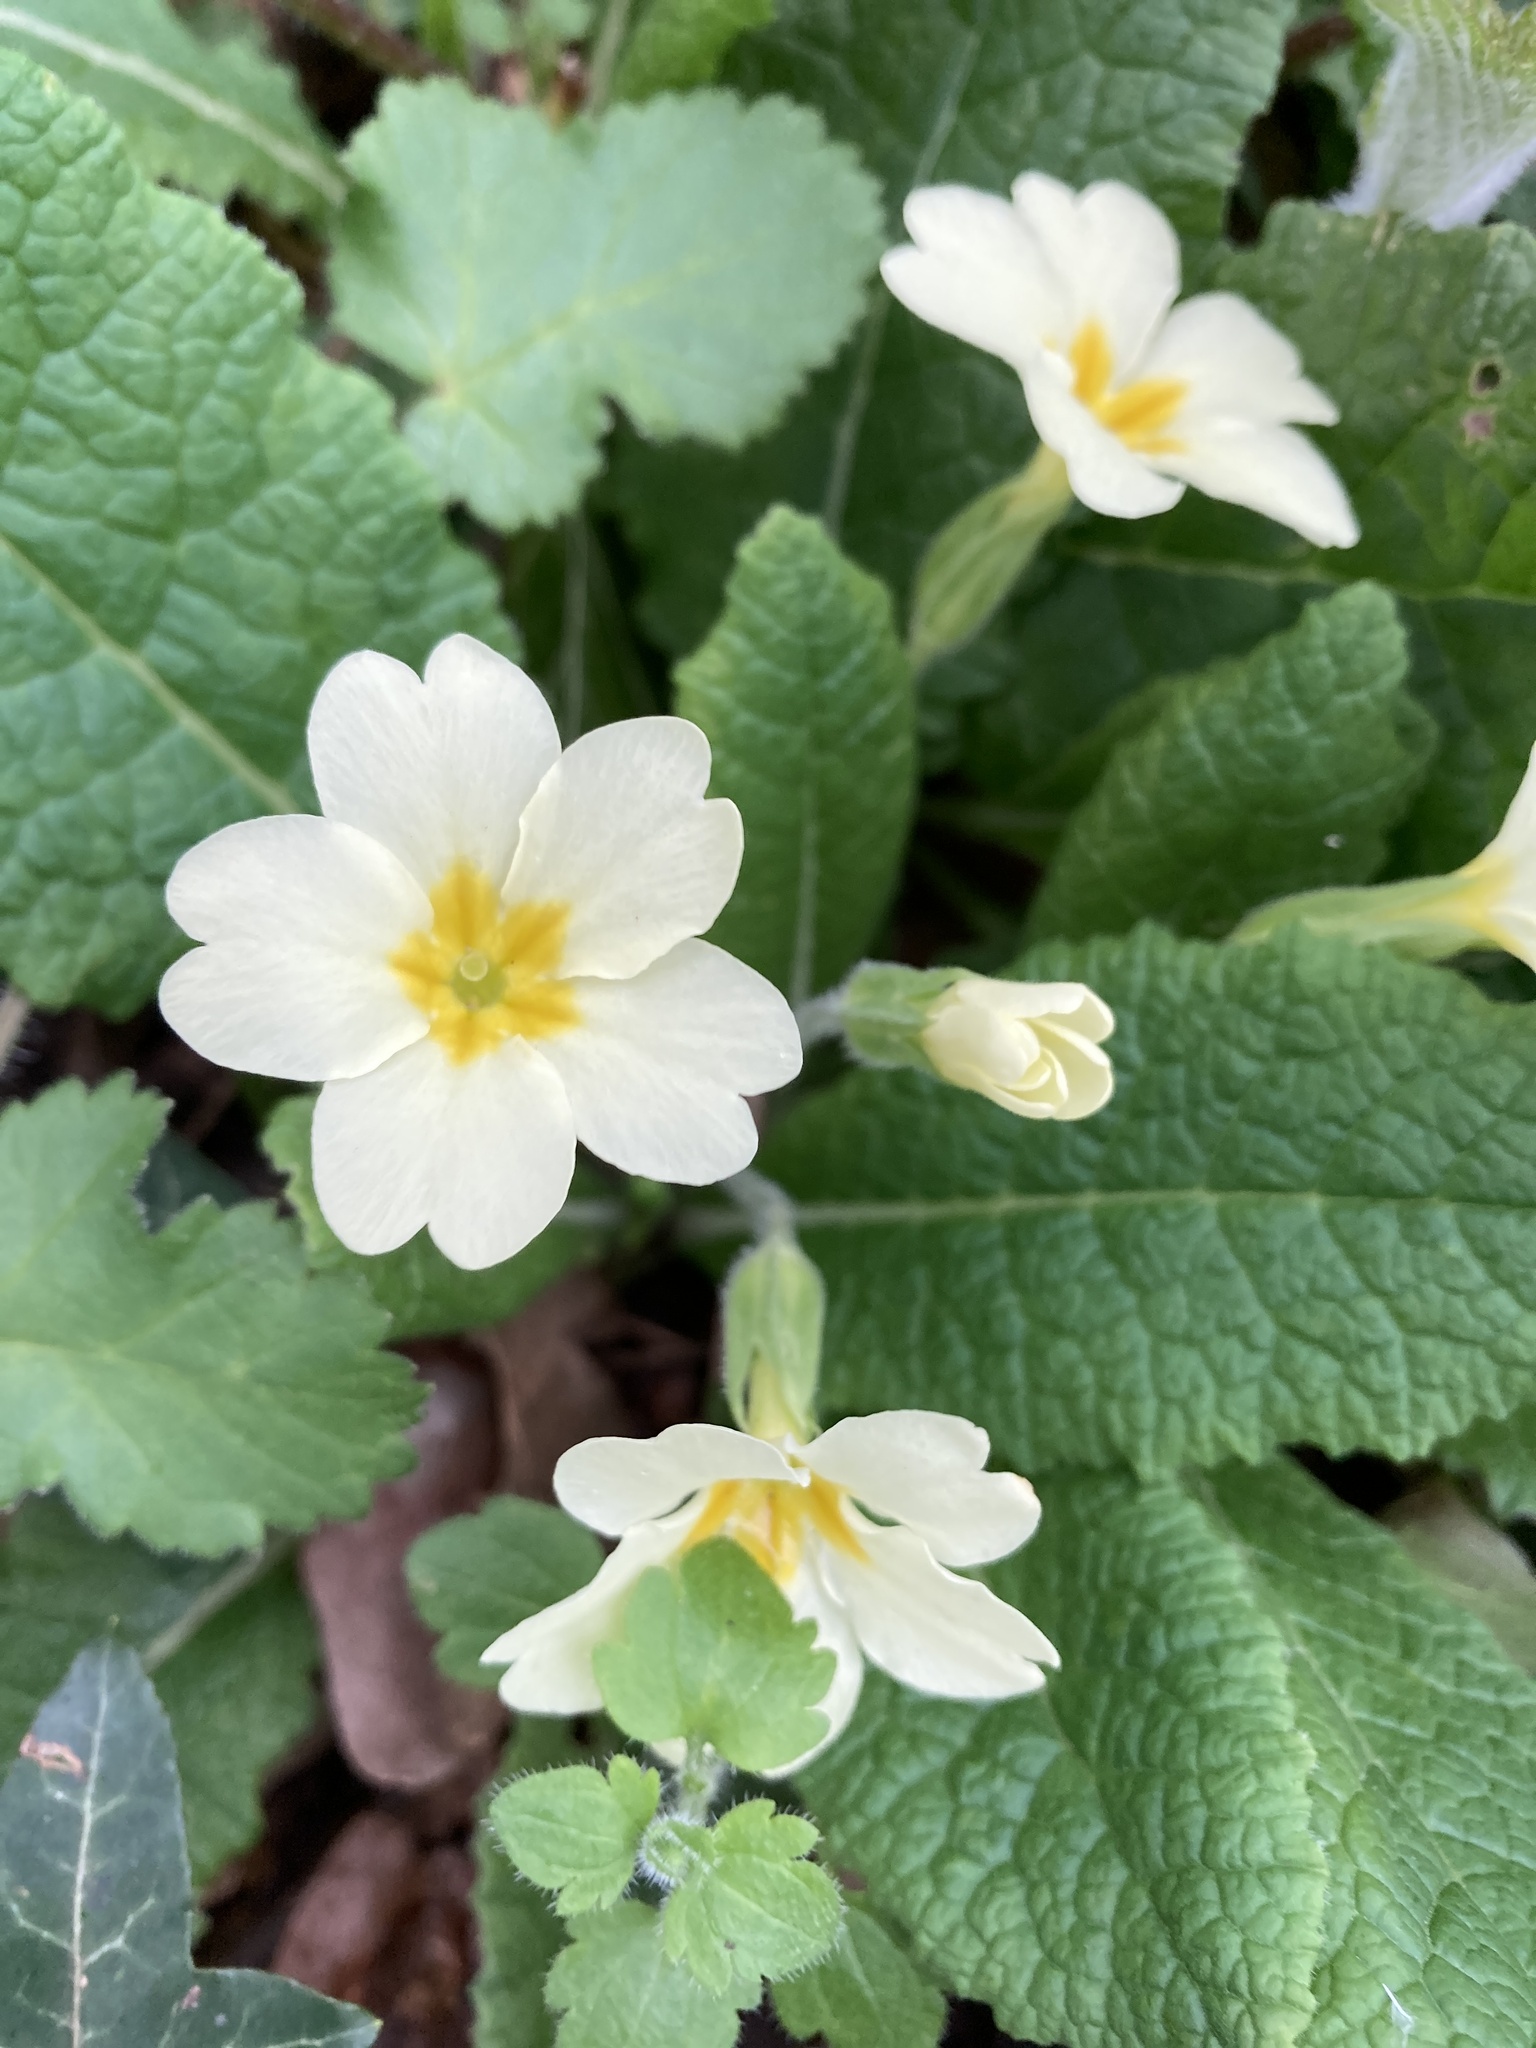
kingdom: Plantae
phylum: Tracheophyta
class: Magnoliopsida
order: Ericales
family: Primulaceae
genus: Primula
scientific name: Primula vulgaris
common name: Primrose
